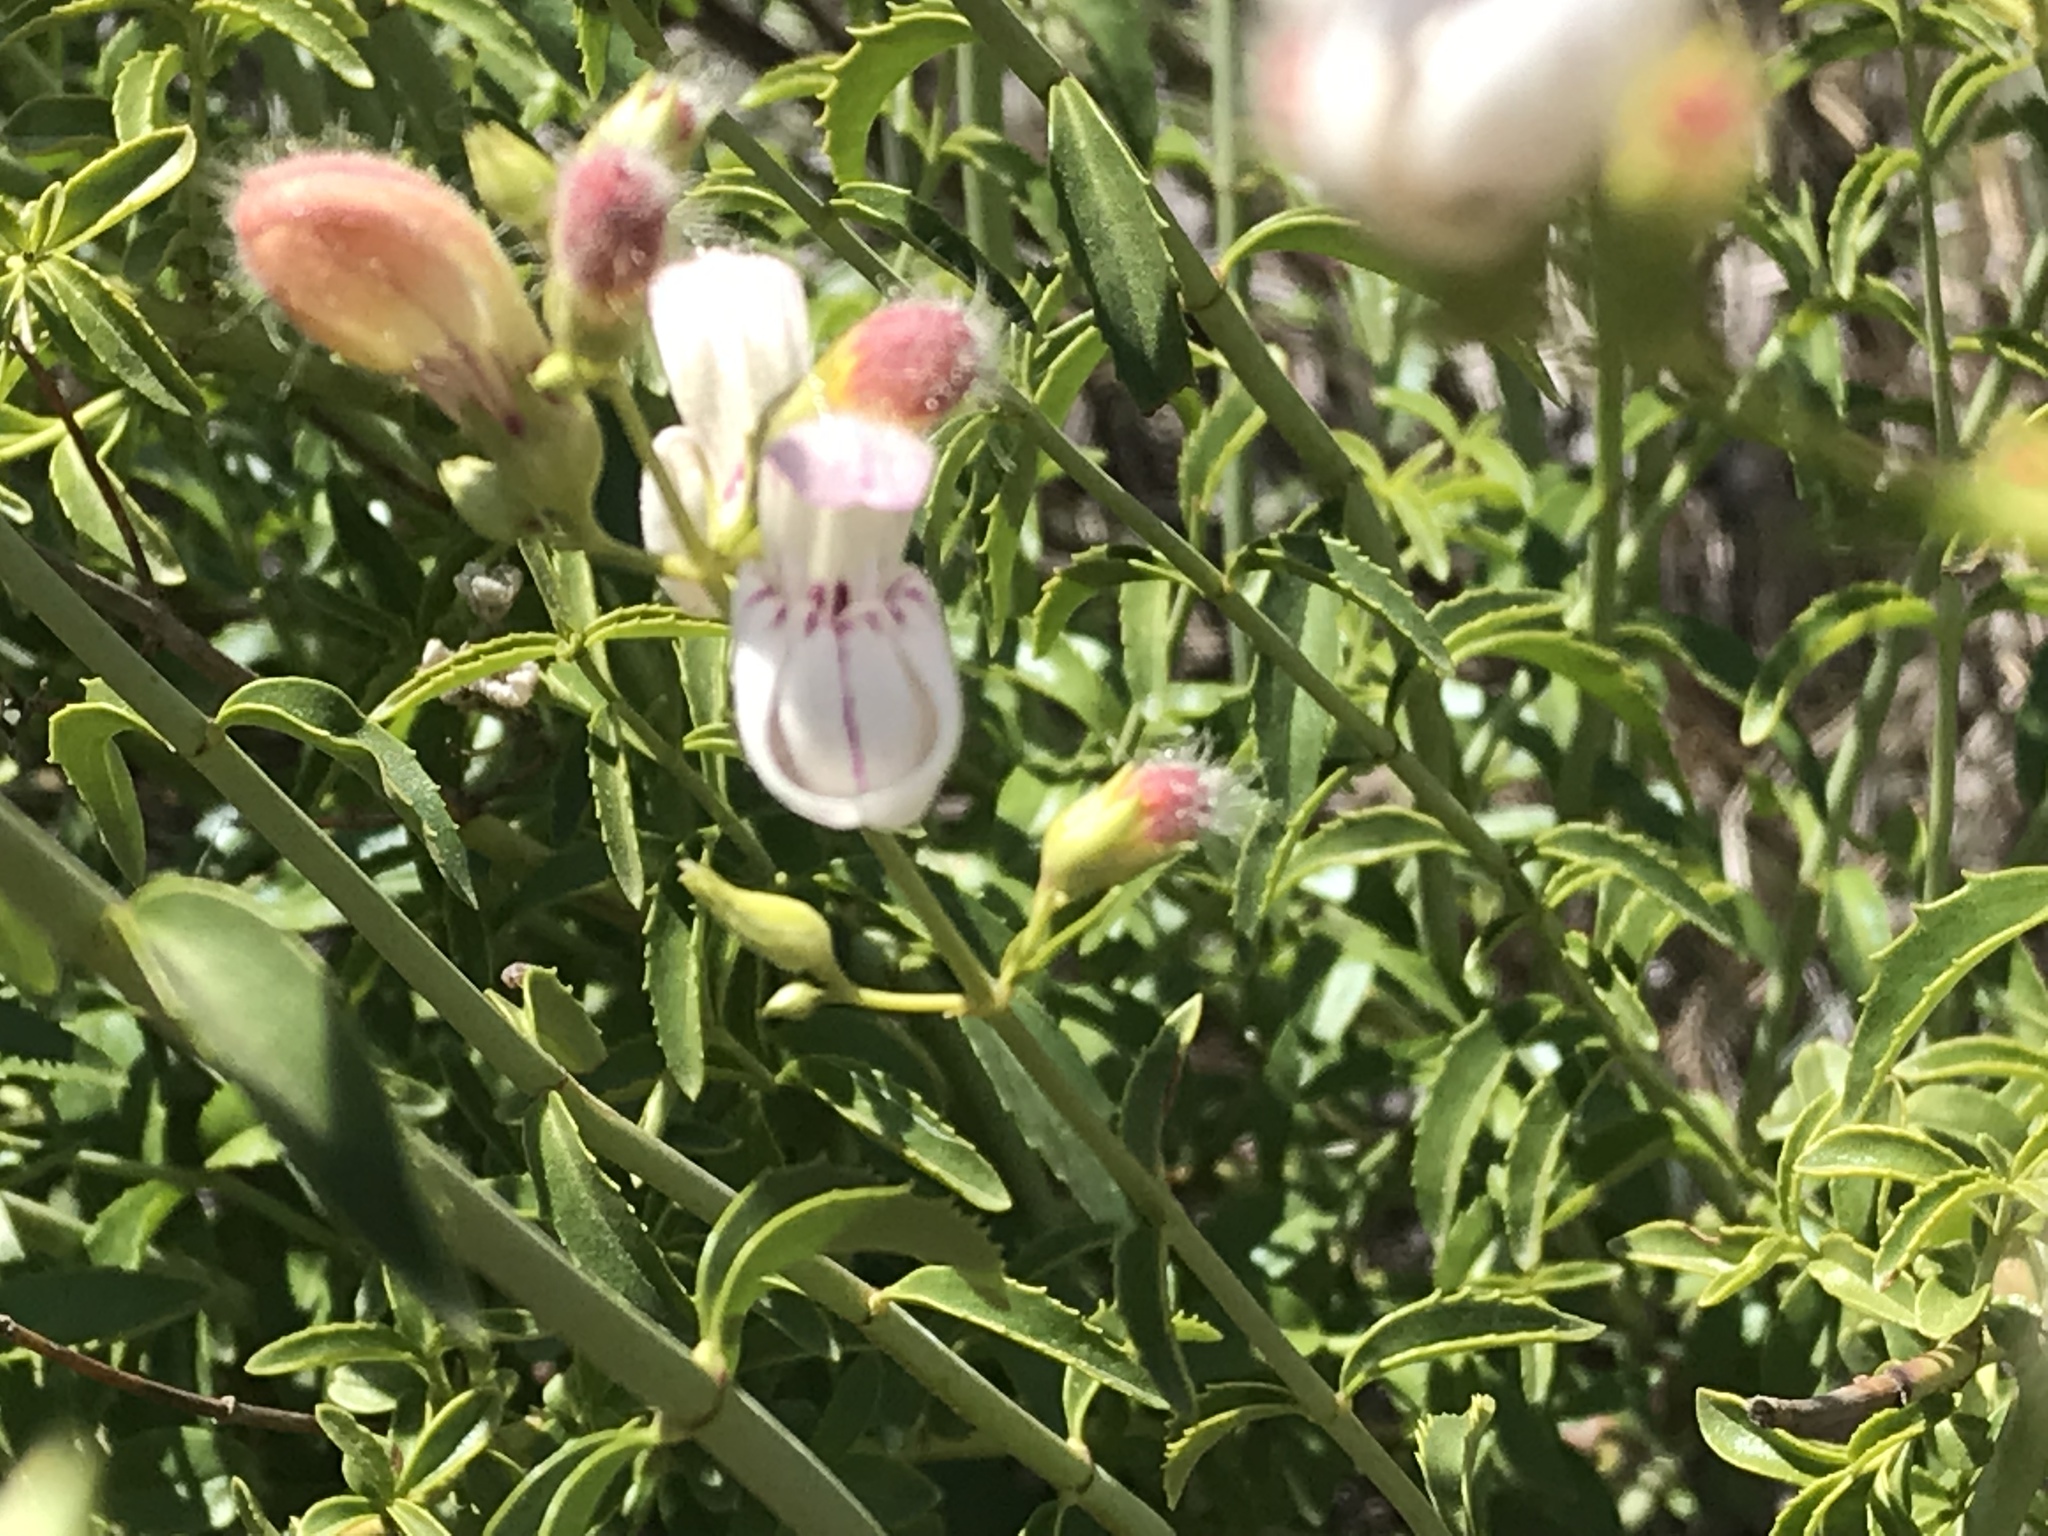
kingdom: Plantae
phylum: Tracheophyta
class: Magnoliopsida
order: Lamiales
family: Plantaginaceae
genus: Keckiella
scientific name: Keckiella breviflora
